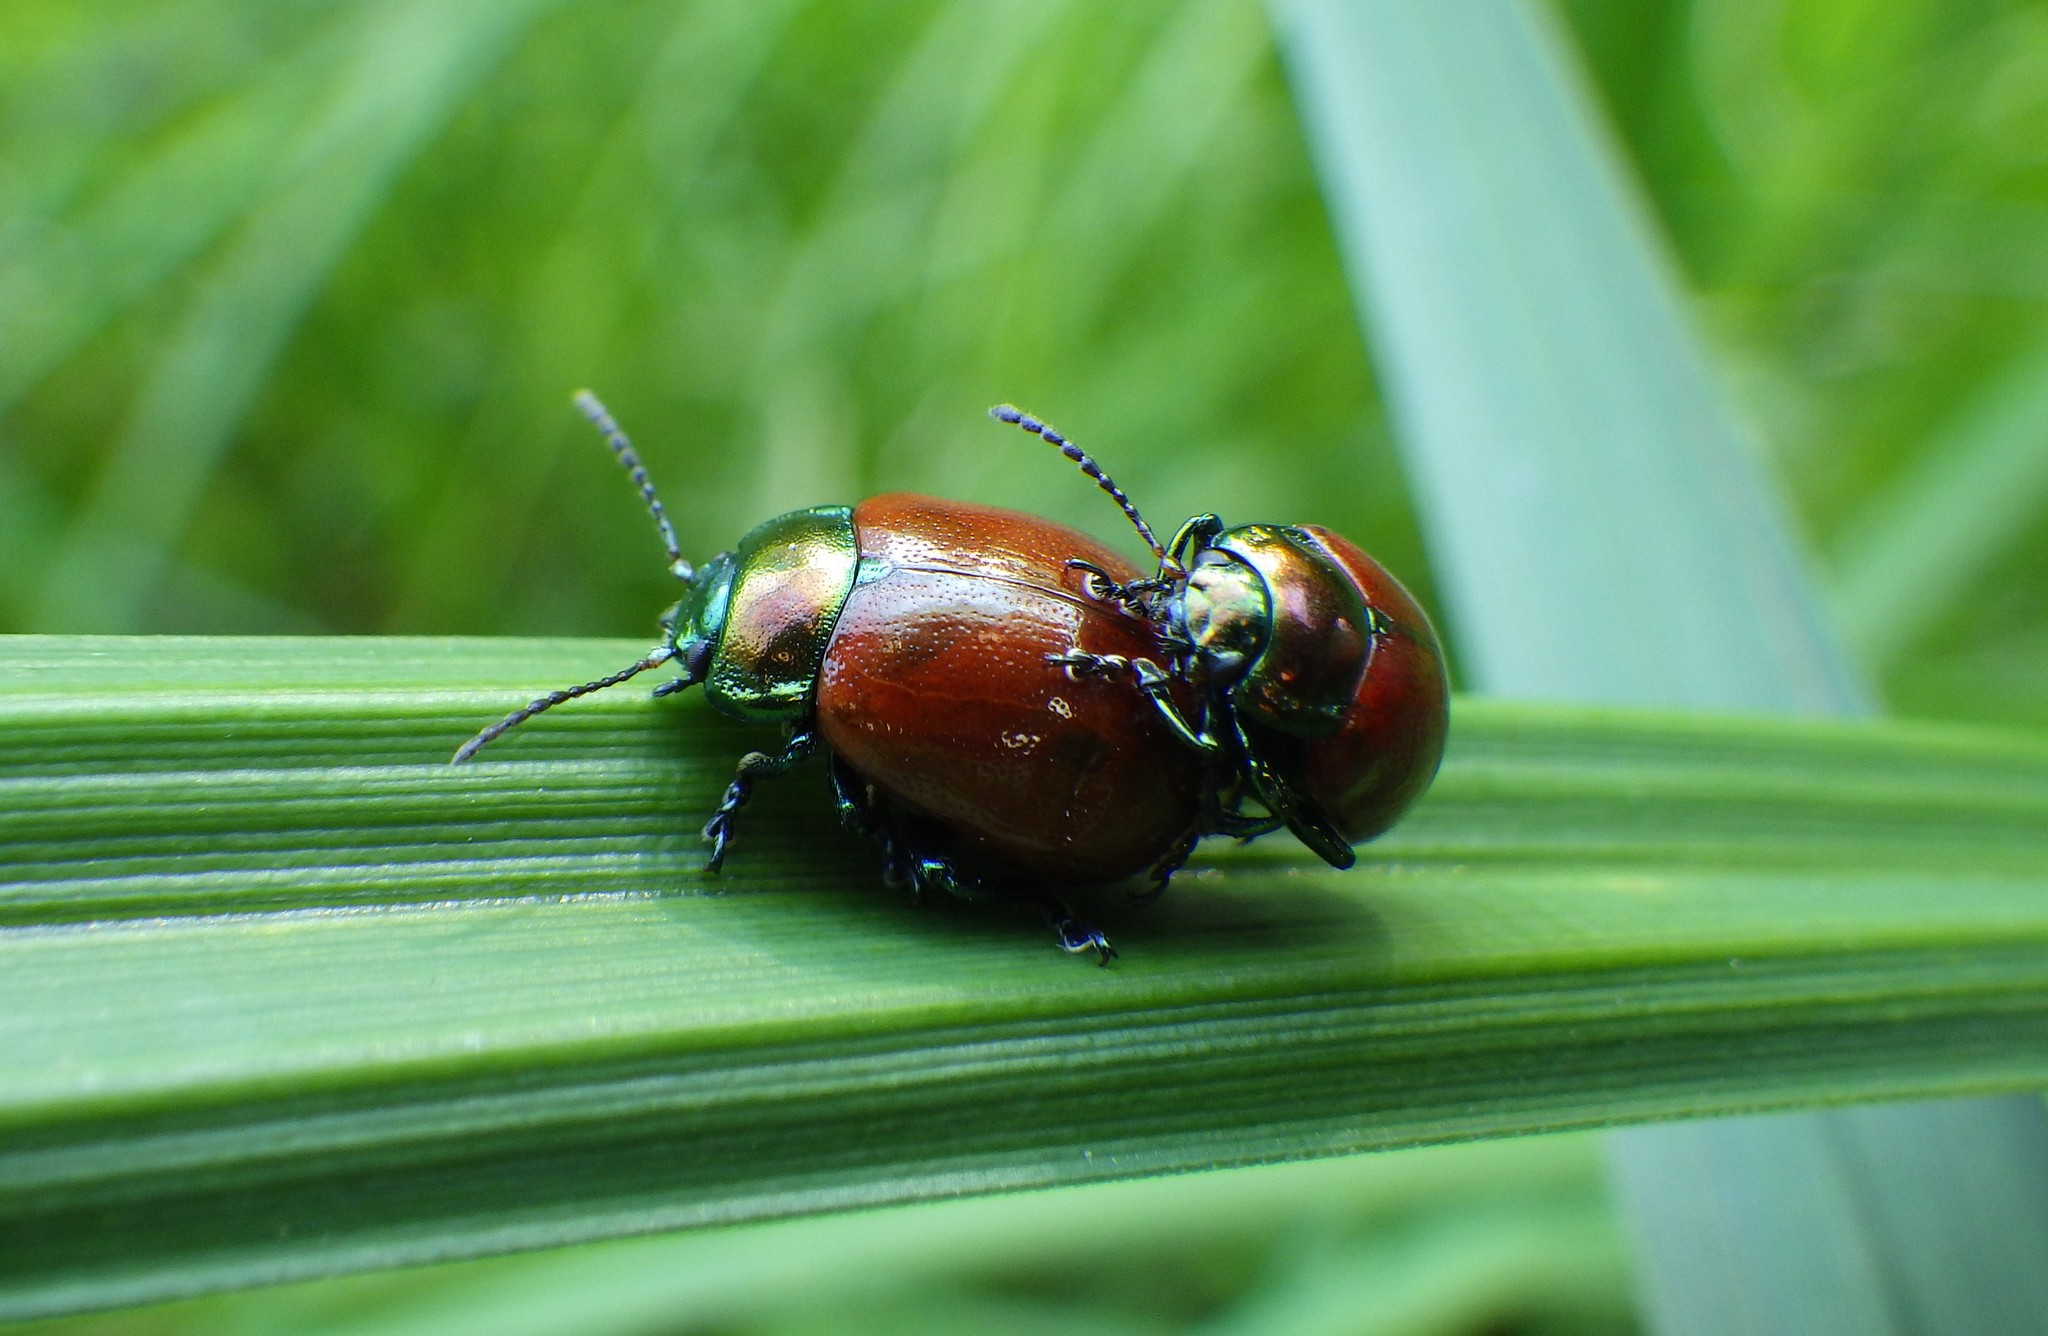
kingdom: Animalia
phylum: Arthropoda
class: Insecta
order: Coleoptera
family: Chrysomelidae
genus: Chrysomela
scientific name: Chrysomela polita
